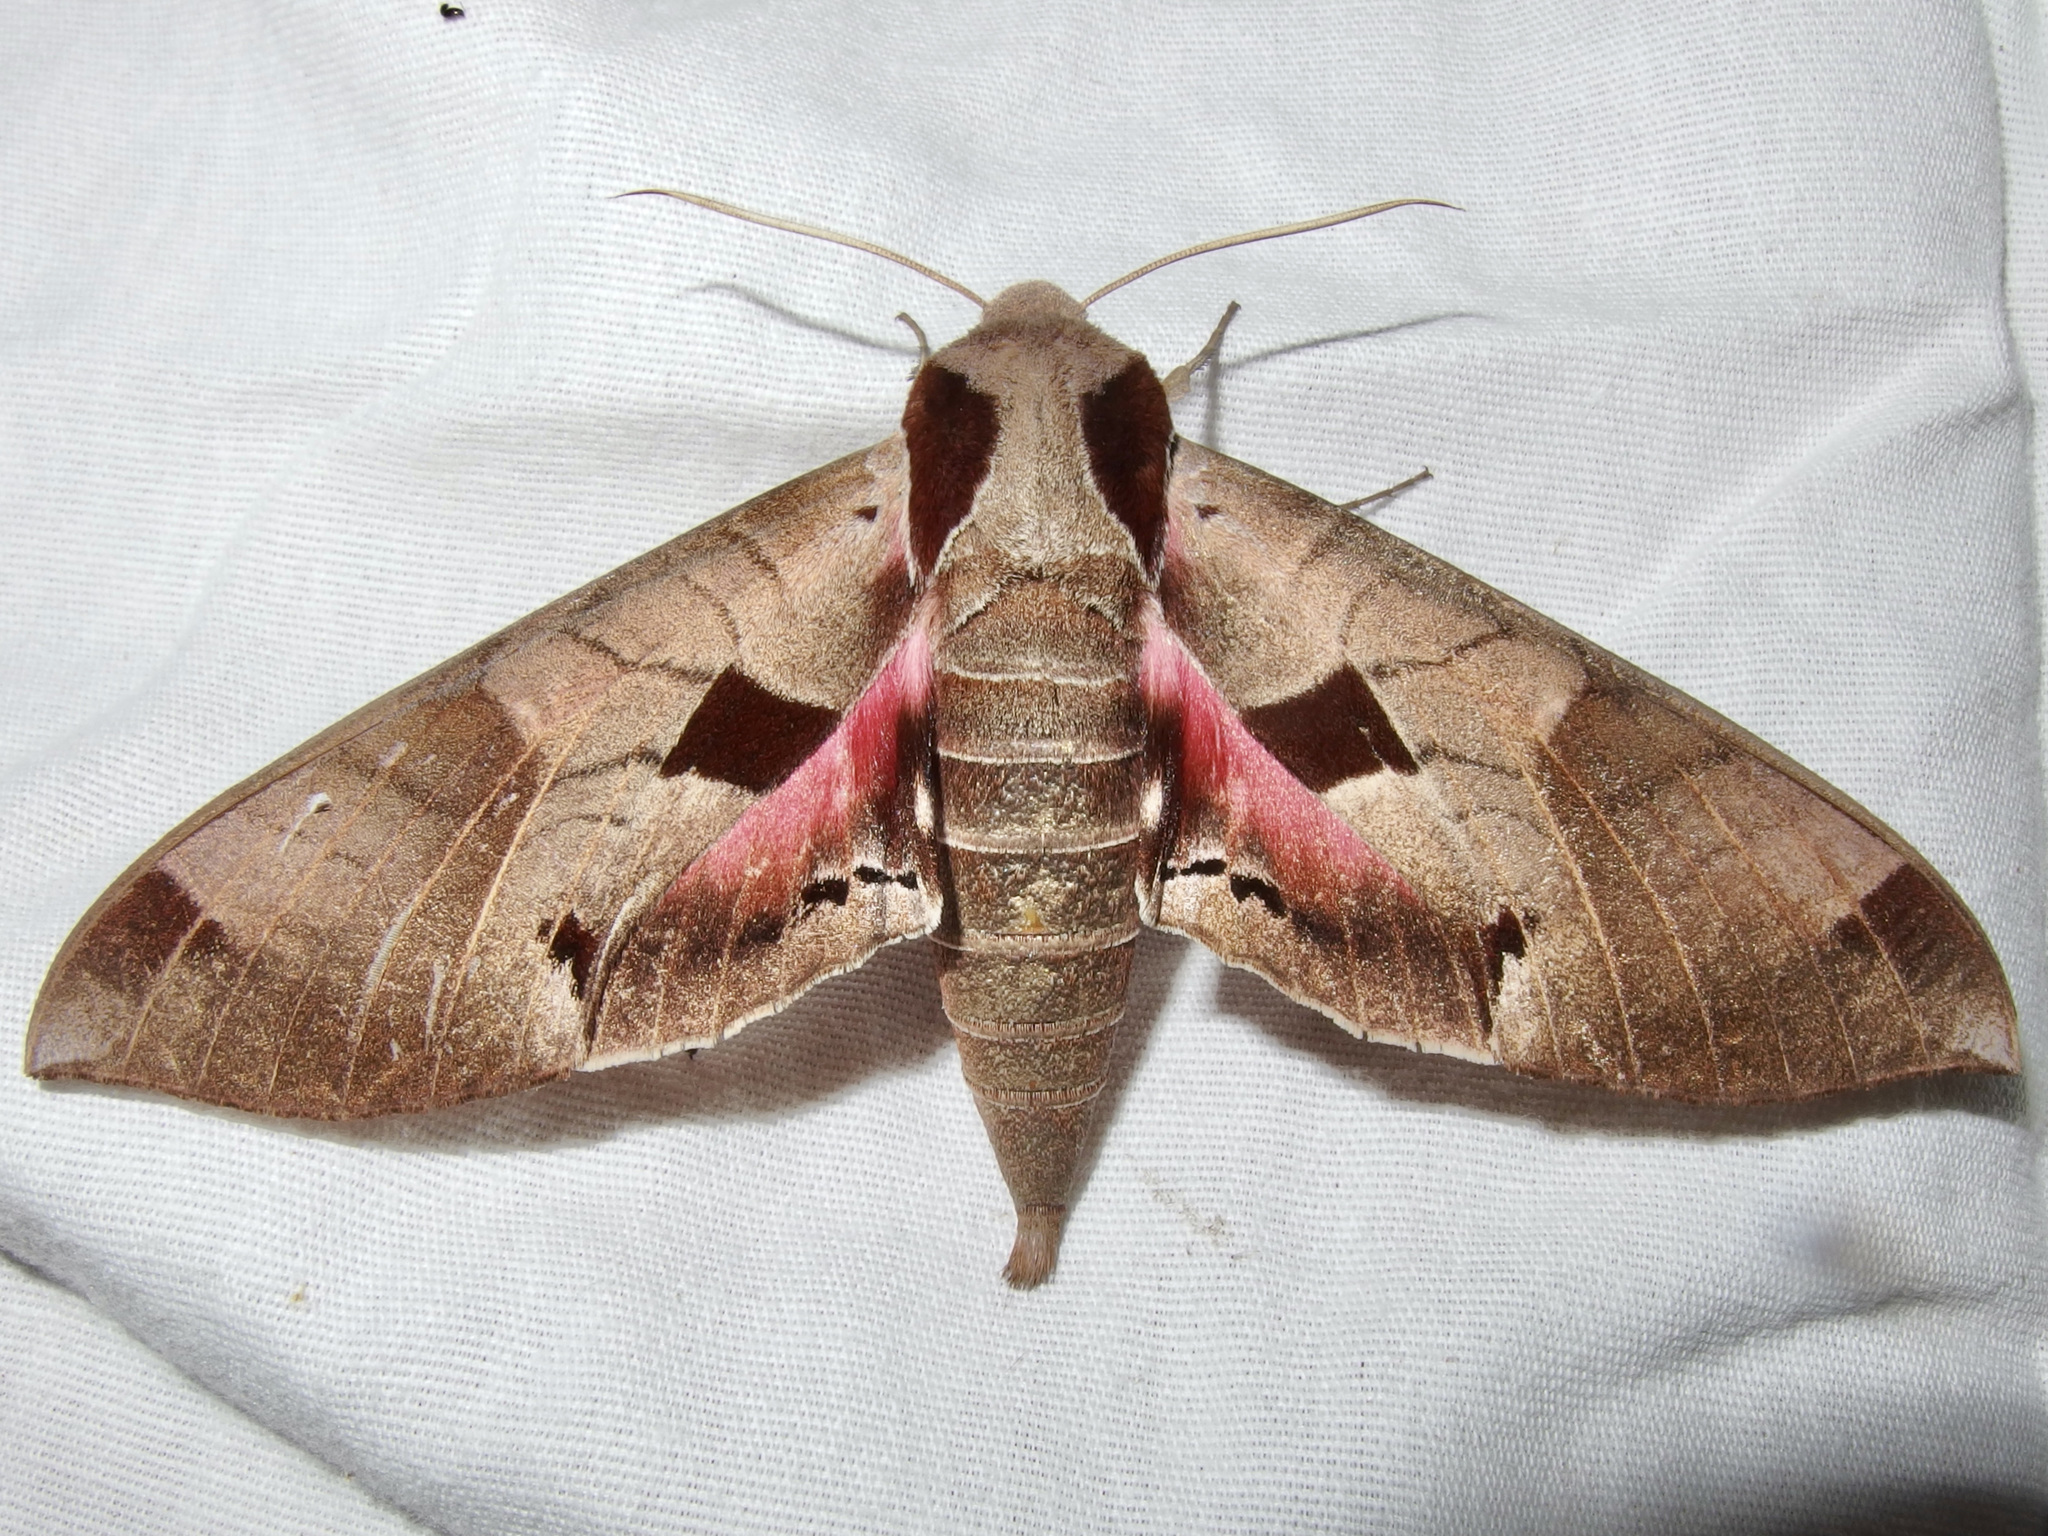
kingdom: Animalia
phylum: Arthropoda
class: Insecta
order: Lepidoptera
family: Sphingidae
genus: Eumorpha
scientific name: Eumorpha achemon
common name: Achemon sphinx
